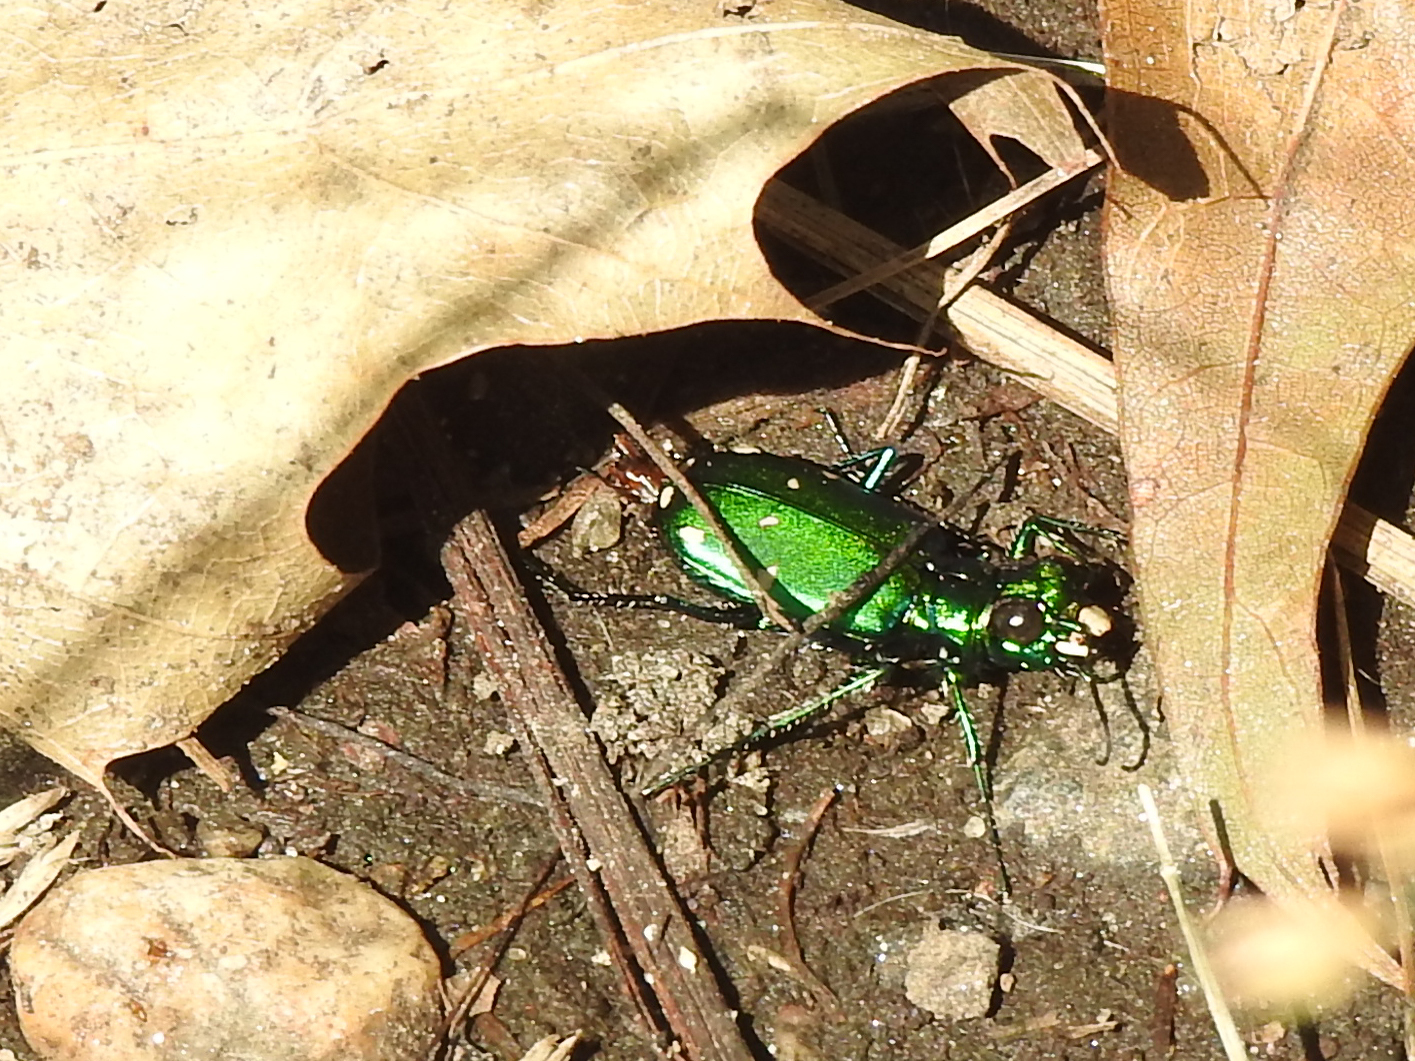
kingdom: Animalia
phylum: Arthropoda
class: Insecta
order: Coleoptera
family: Carabidae
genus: Cicindela
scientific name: Cicindela sexguttata
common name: Six-spotted tiger beetle
